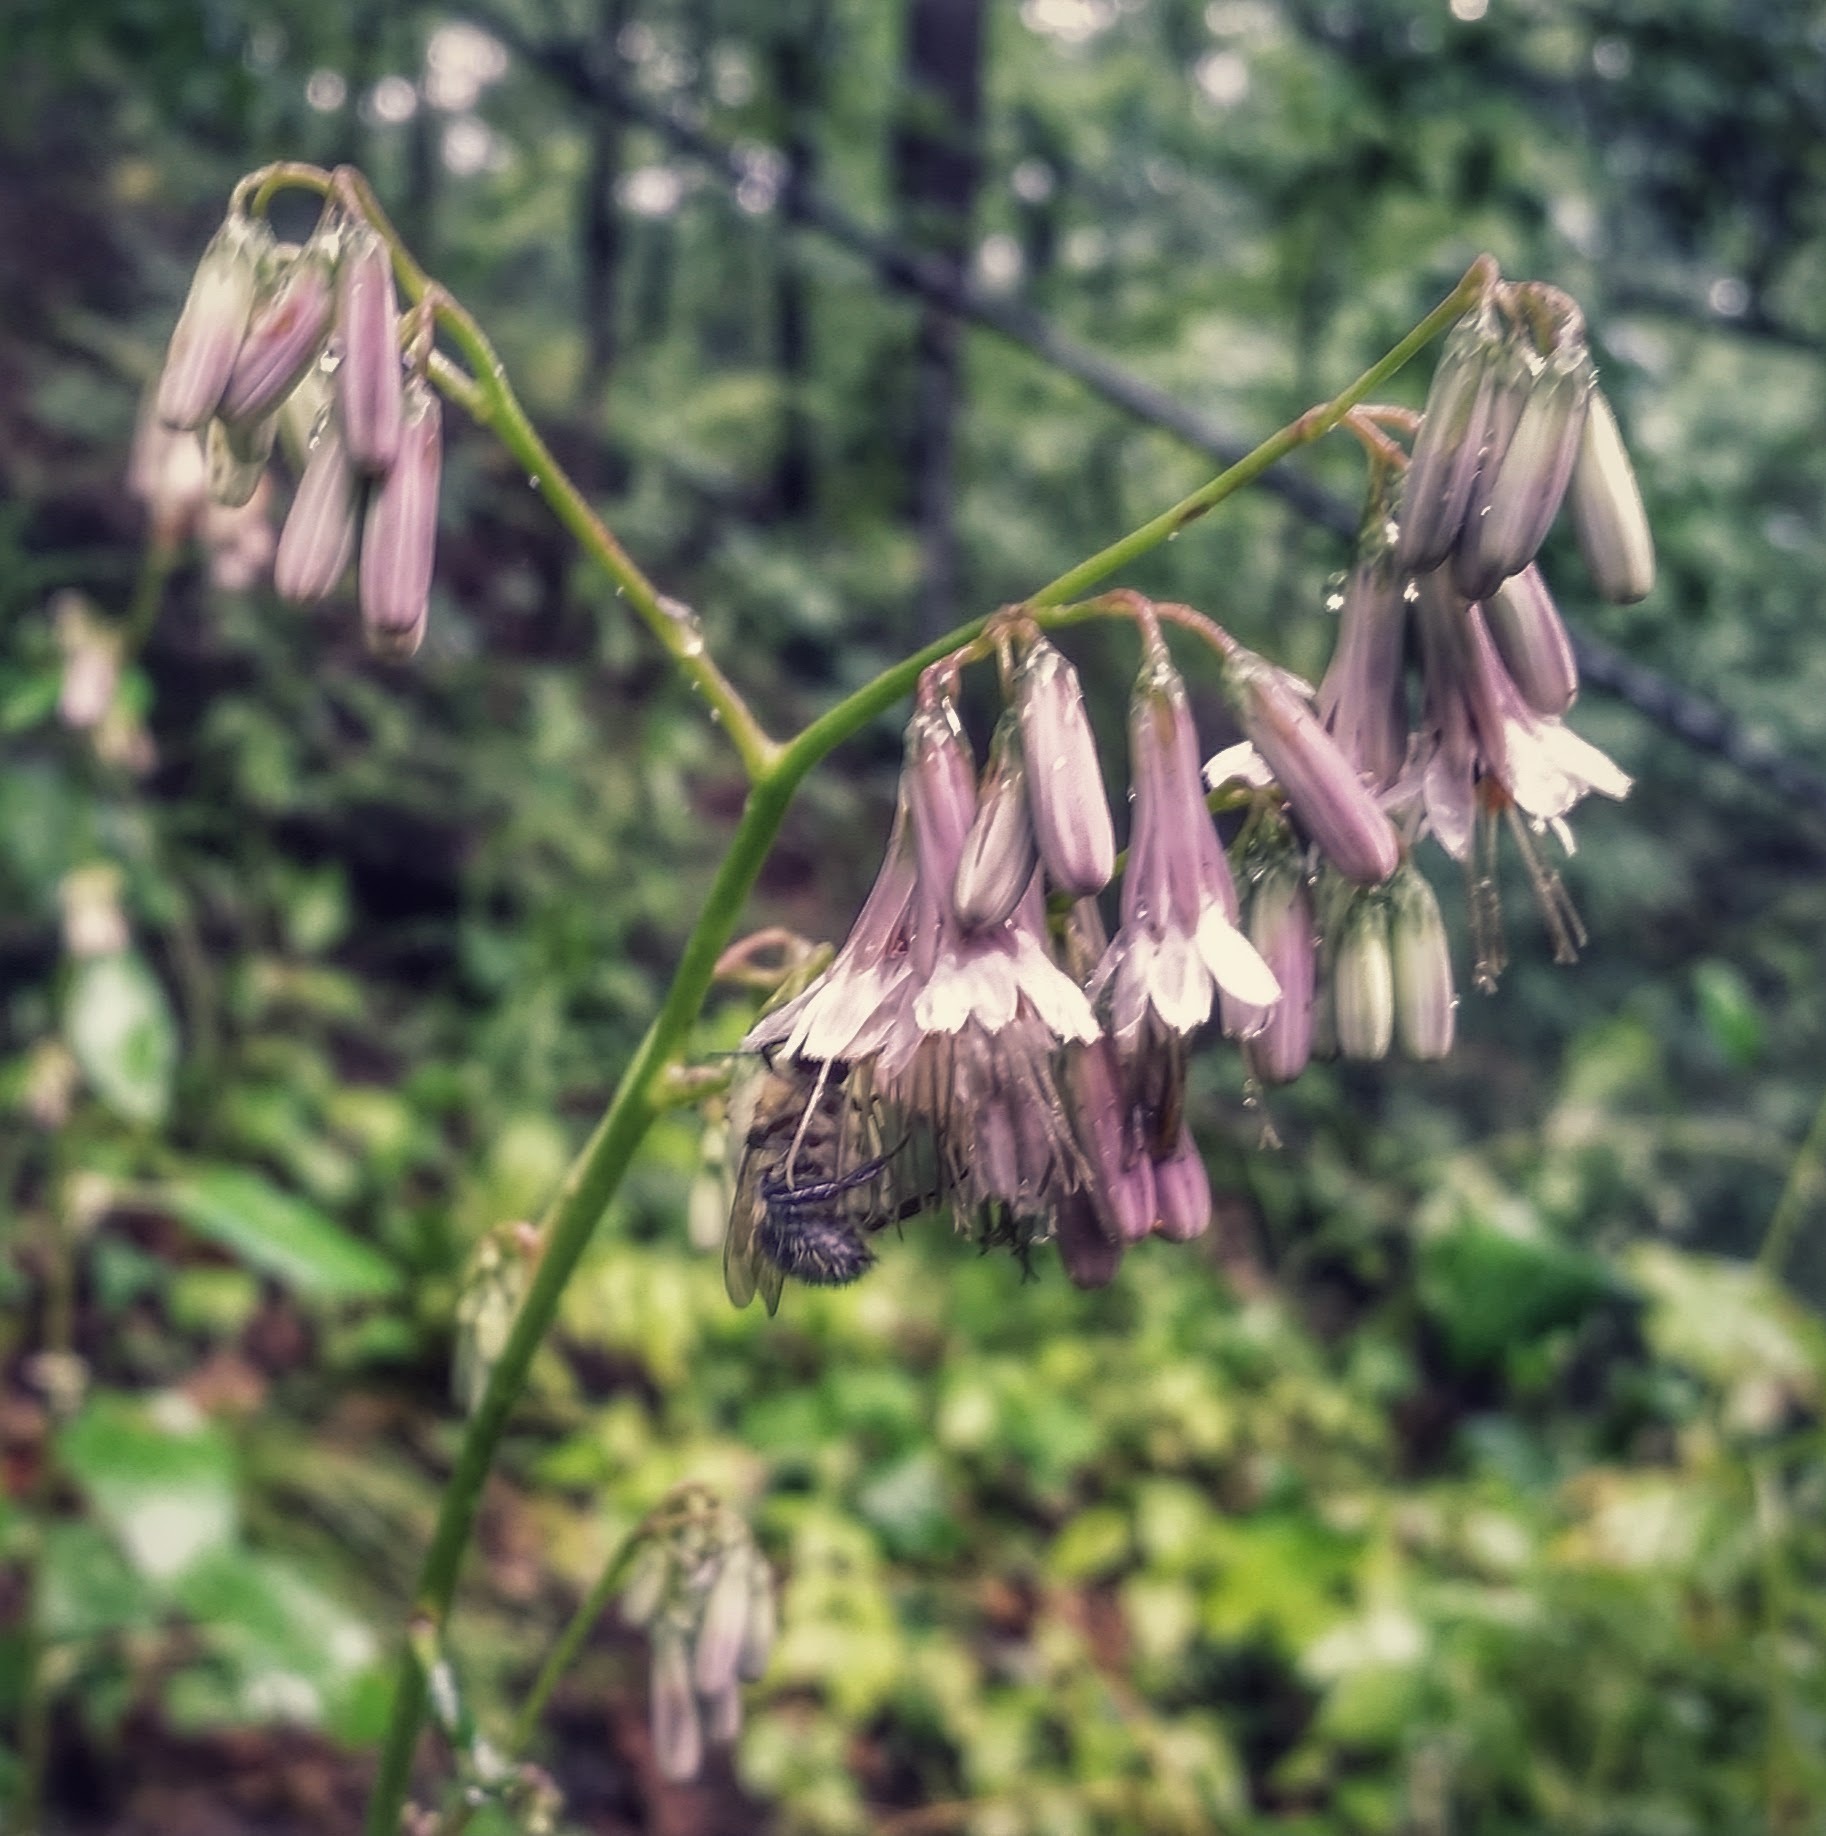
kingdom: Plantae
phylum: Tracheophyta
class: Magnoliopsida
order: Asterales
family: Asteraceae
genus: Nabalus
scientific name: Nabalus albus
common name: White rattlesnakeroot
